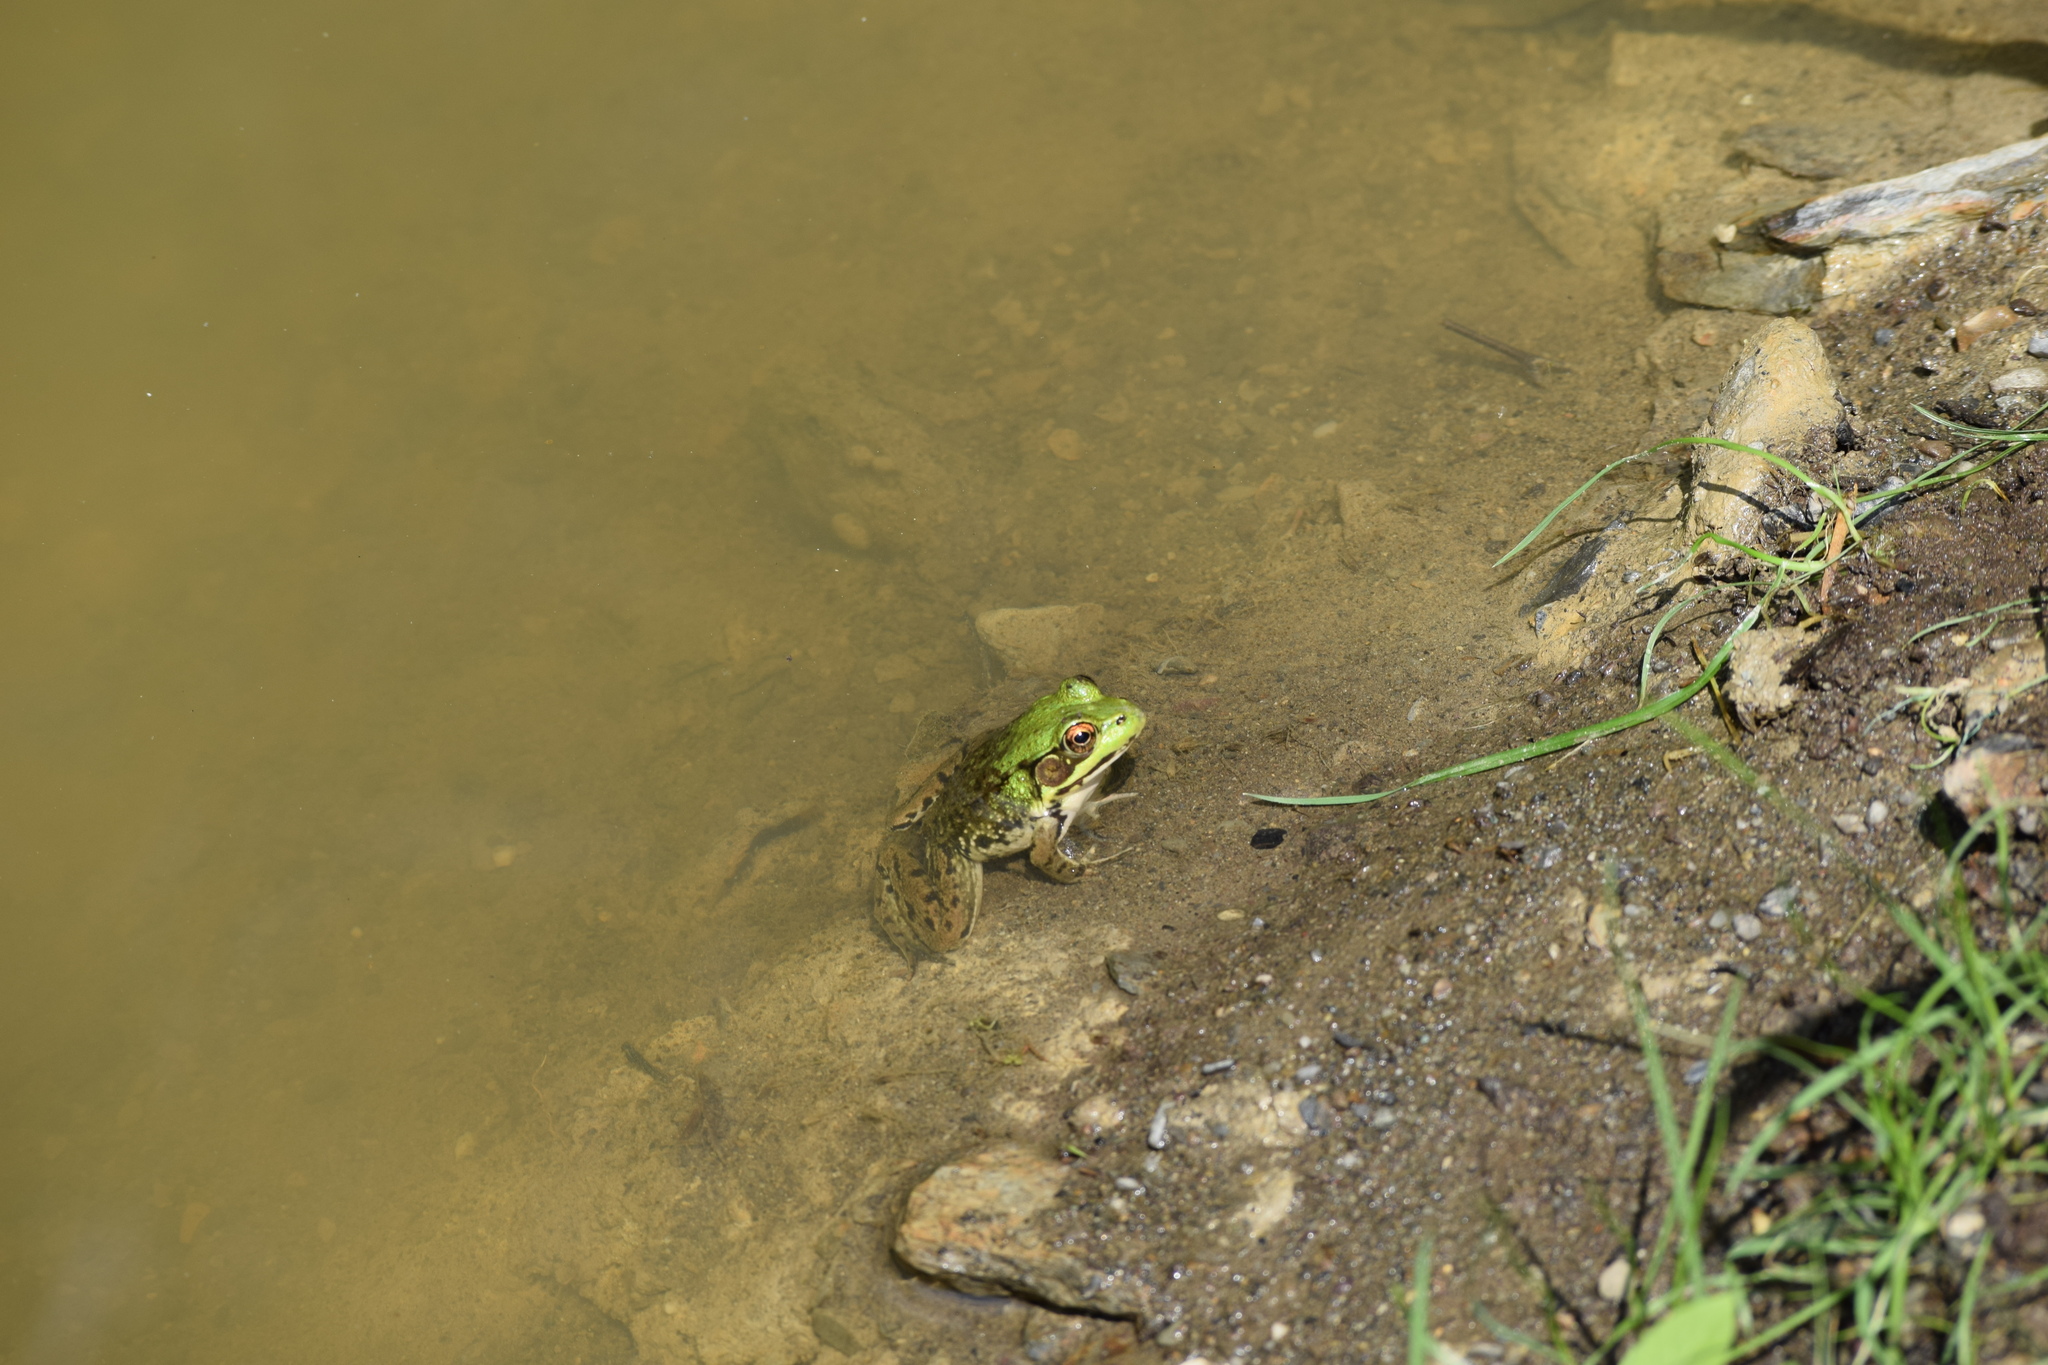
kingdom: Animalia
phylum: Chordata
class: Amphibia
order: Anura
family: Ranidae
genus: Lithobates
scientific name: Lithobates clamitans
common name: Green frog
